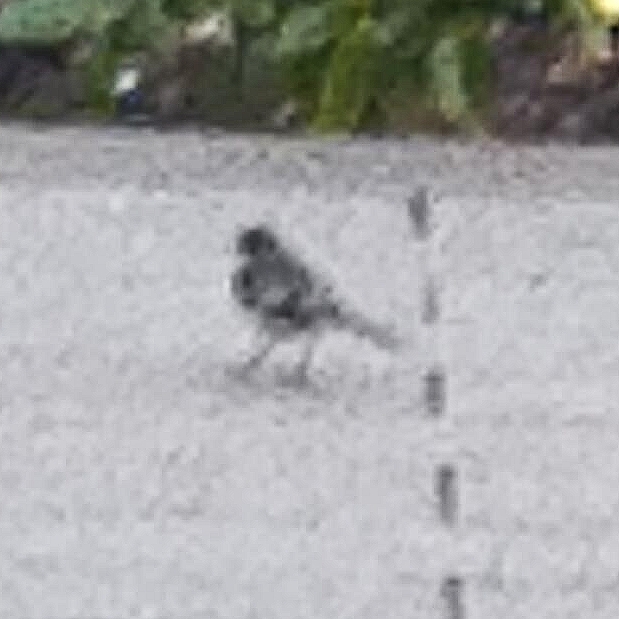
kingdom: Animalia
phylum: Chordata
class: Aves
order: Passeriformes
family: Motacillidae
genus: Motacilla
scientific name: Motacilla alba
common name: White wagtail
